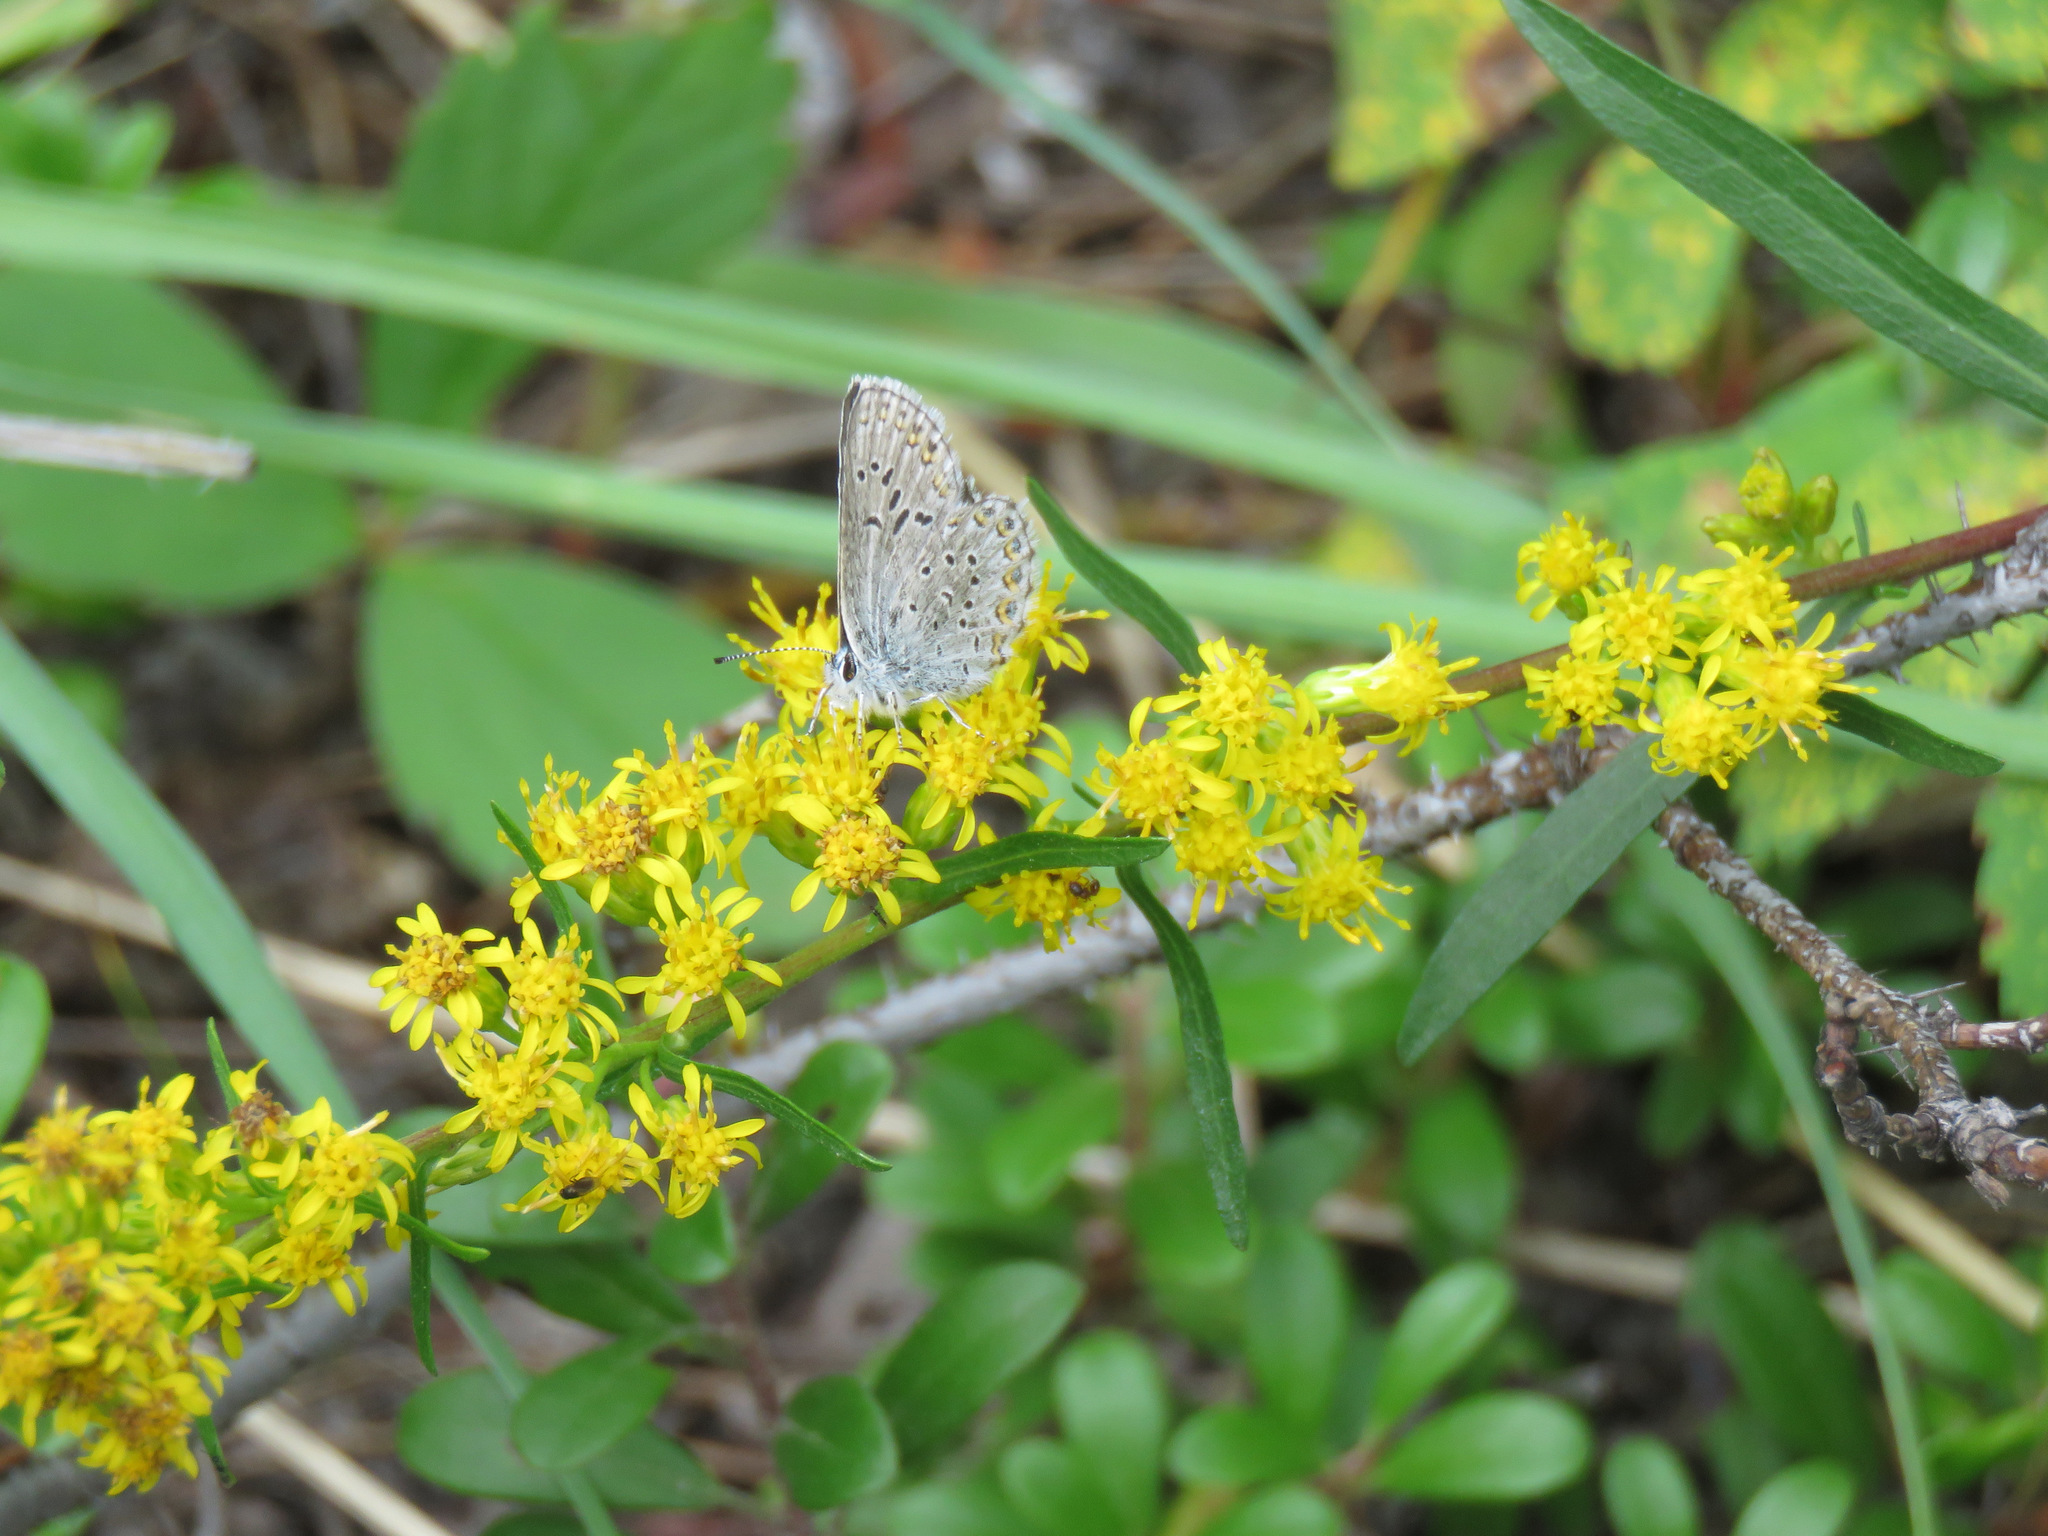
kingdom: Animalia
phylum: Arthropoda
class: Insecta
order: Lepidoptera
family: Lycaenidae
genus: Lycaeides
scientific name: Lycaeides idas
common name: Northern blue
